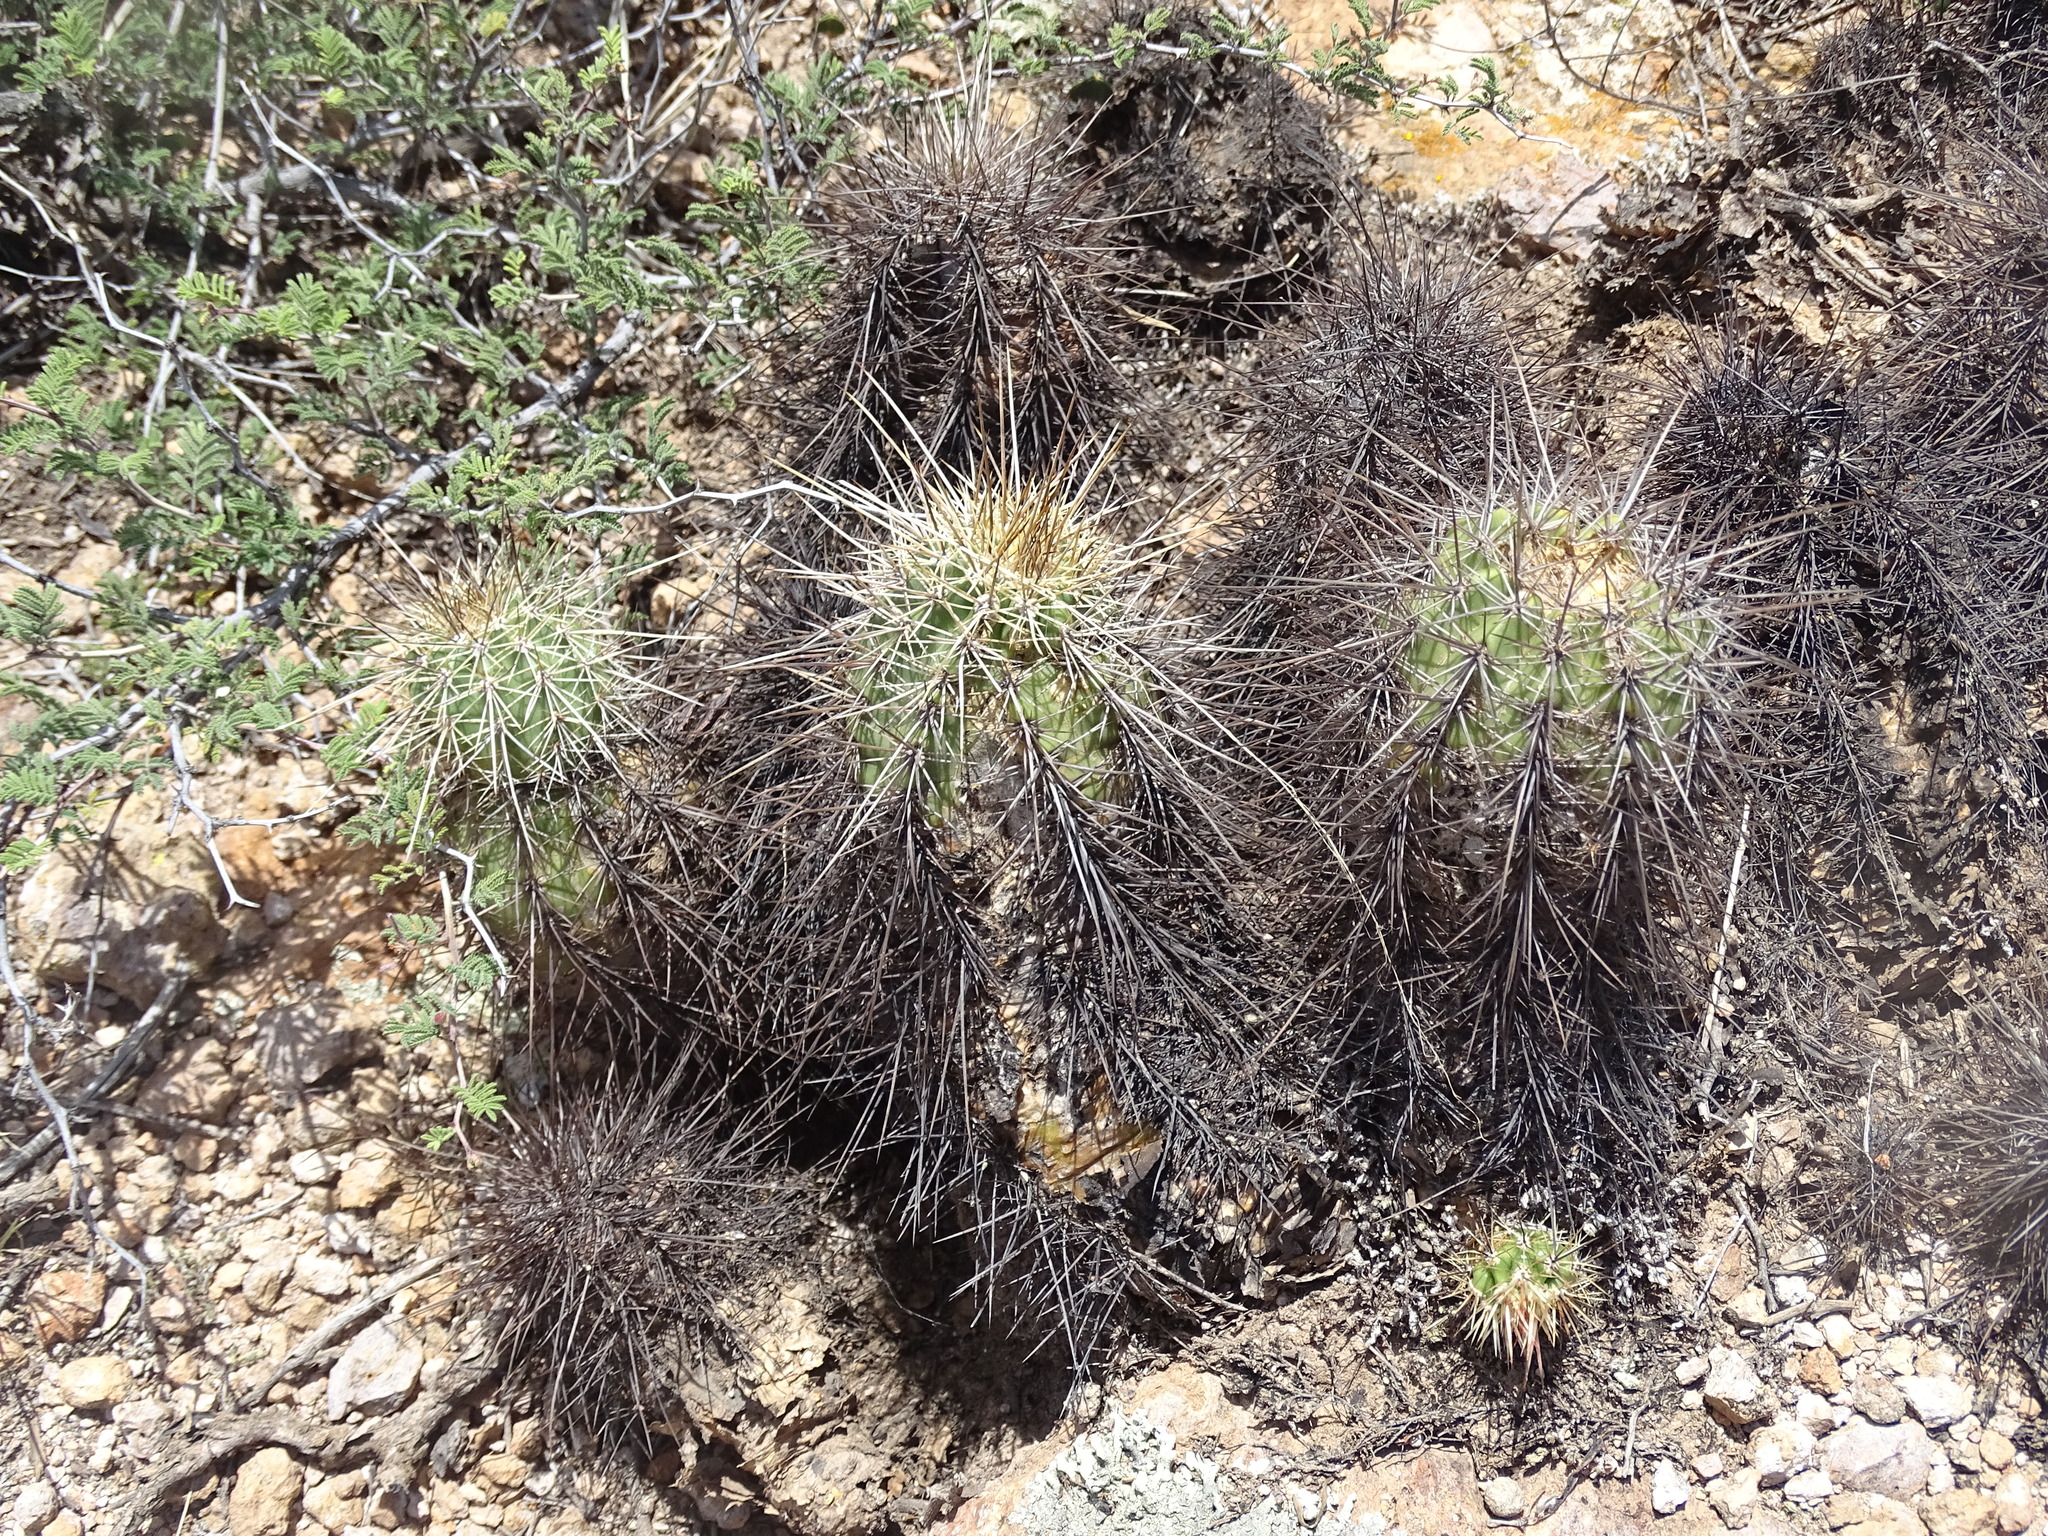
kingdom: Plantae
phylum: Tracheophyta
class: Magnoliopsida
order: Caryophyllales
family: Cactaceae
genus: Echinocereus
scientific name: Echinocereus acifer
